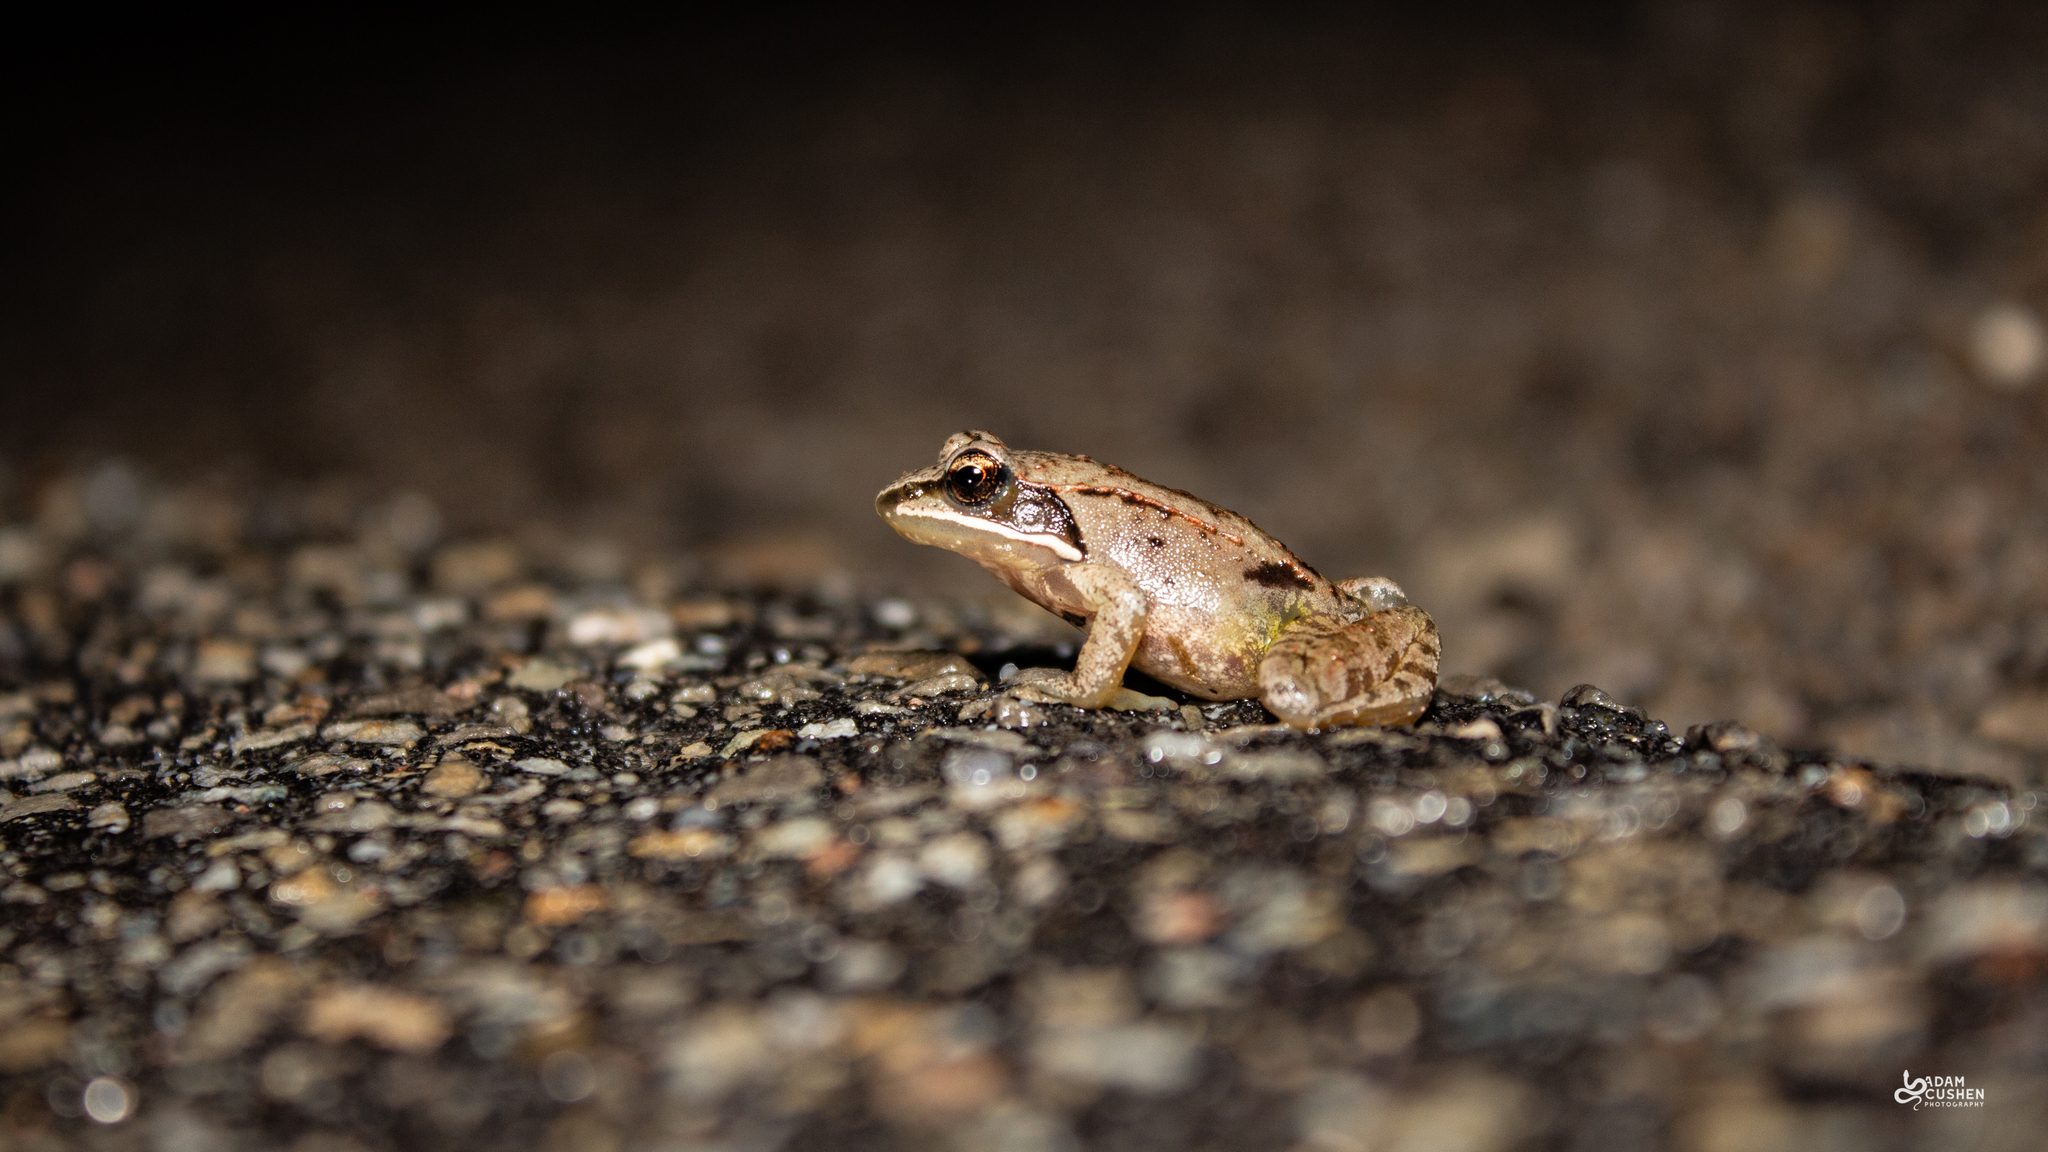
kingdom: Animalia
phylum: Chordata
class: Amphibia
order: Anura
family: Ranidae
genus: Lithobates
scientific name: Lithobates sylvaticus
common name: Wood frog
